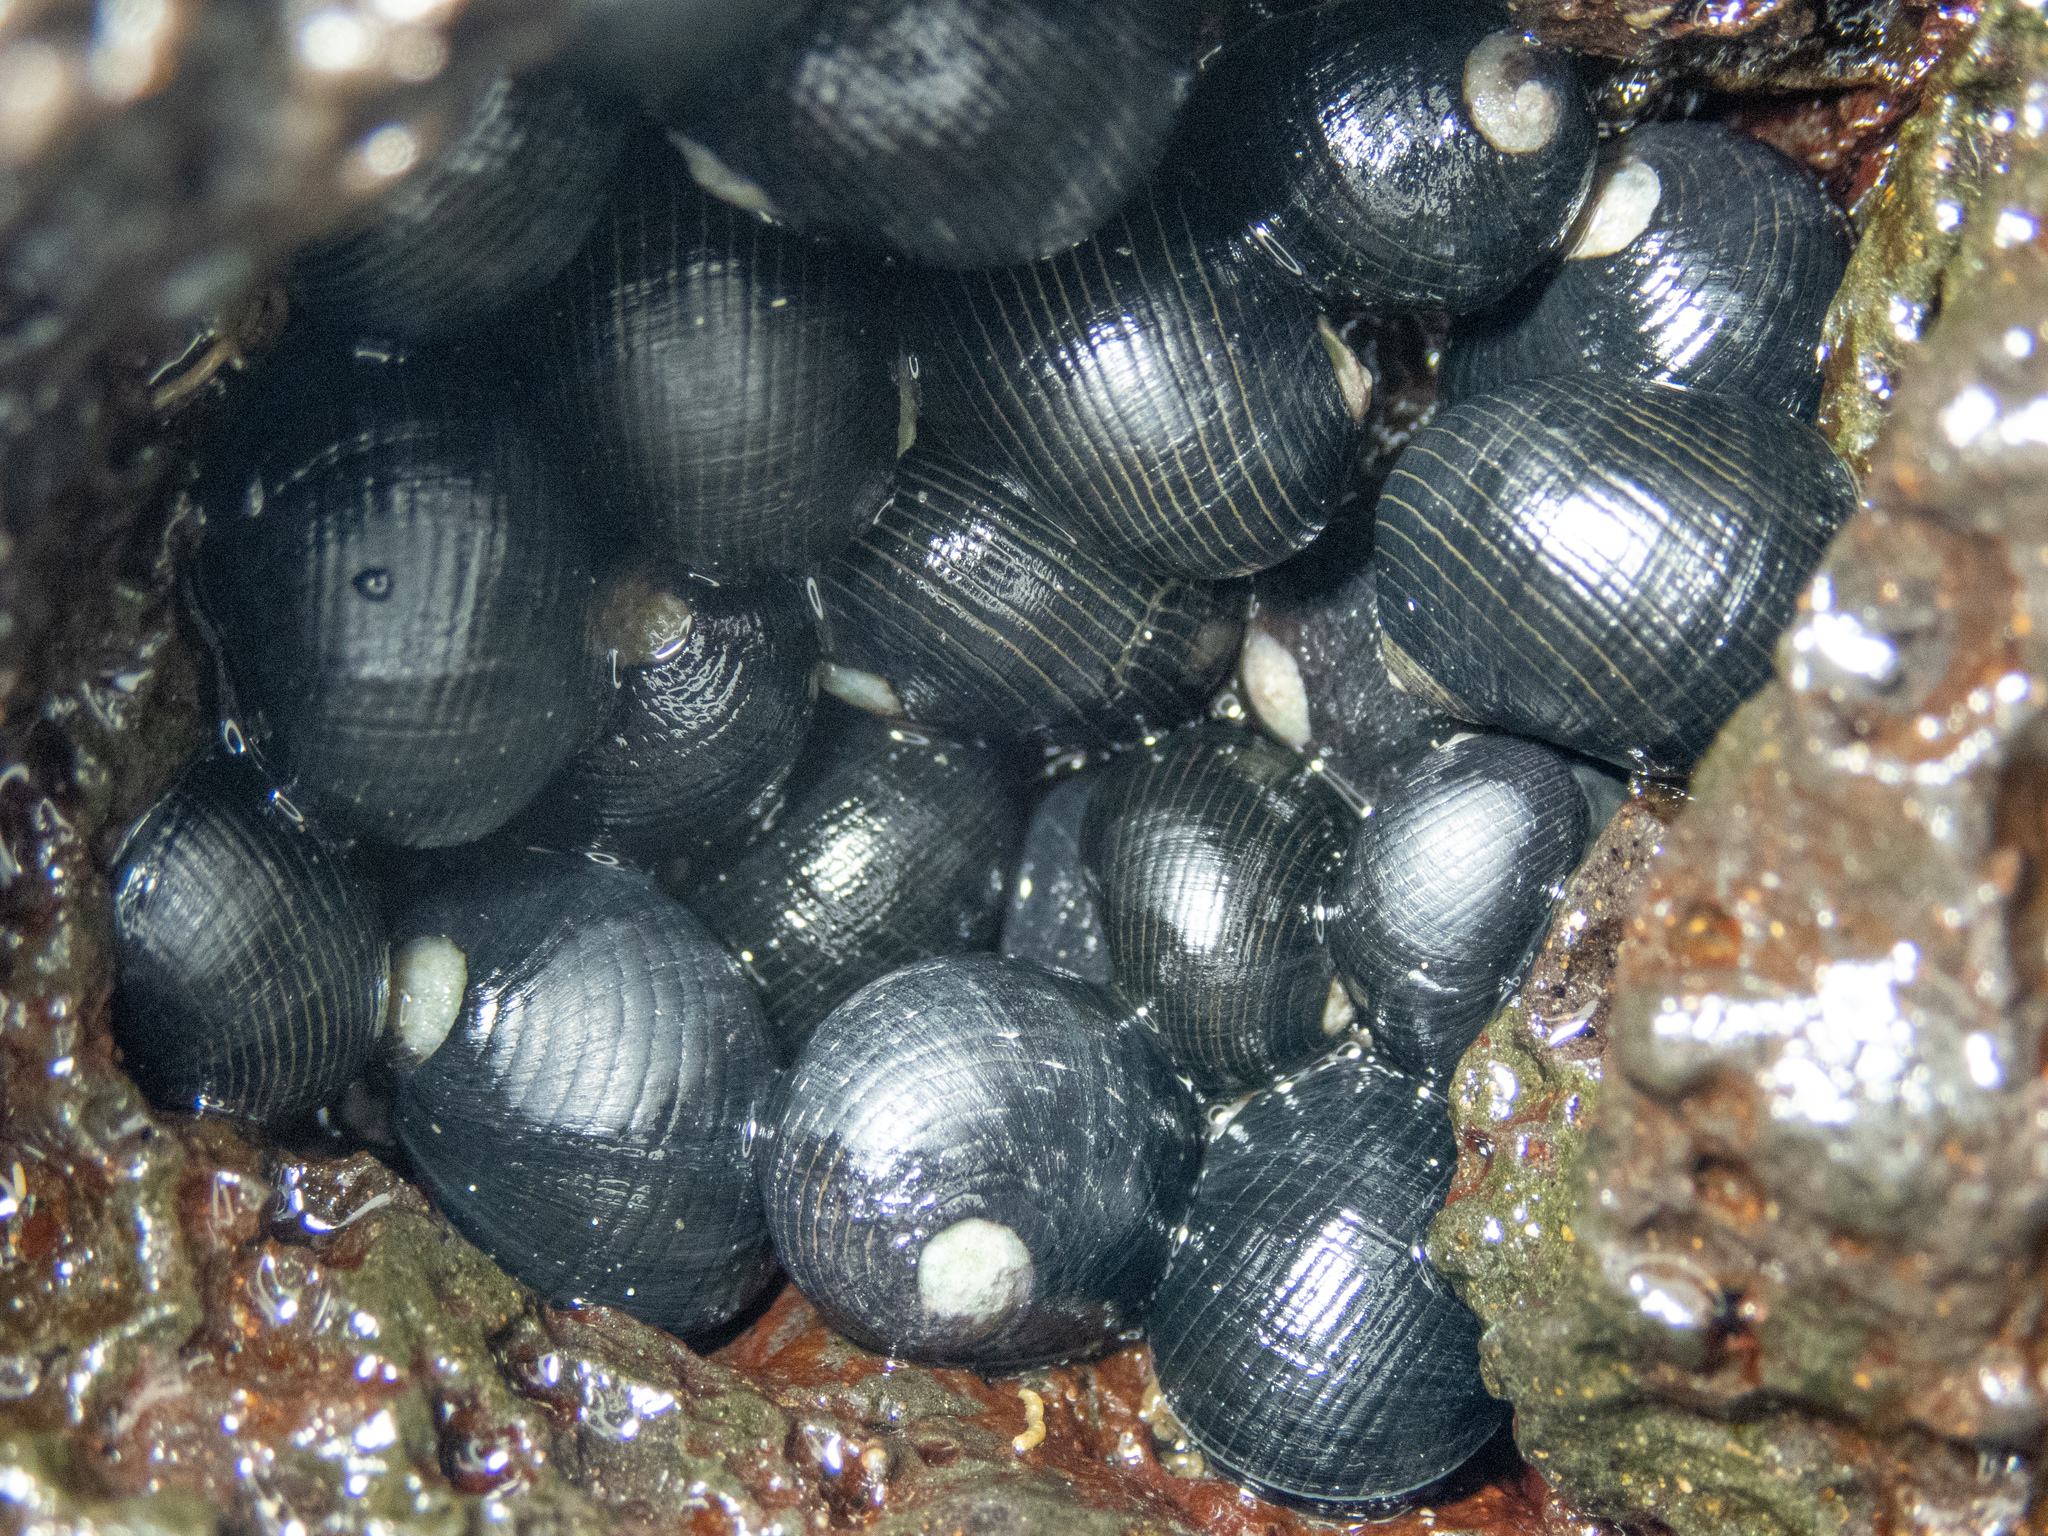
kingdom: Animalia
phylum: Mollusca
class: Gastropoda
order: Cycloneritida
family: Neritidae
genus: Nerita
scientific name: Nerita picea
